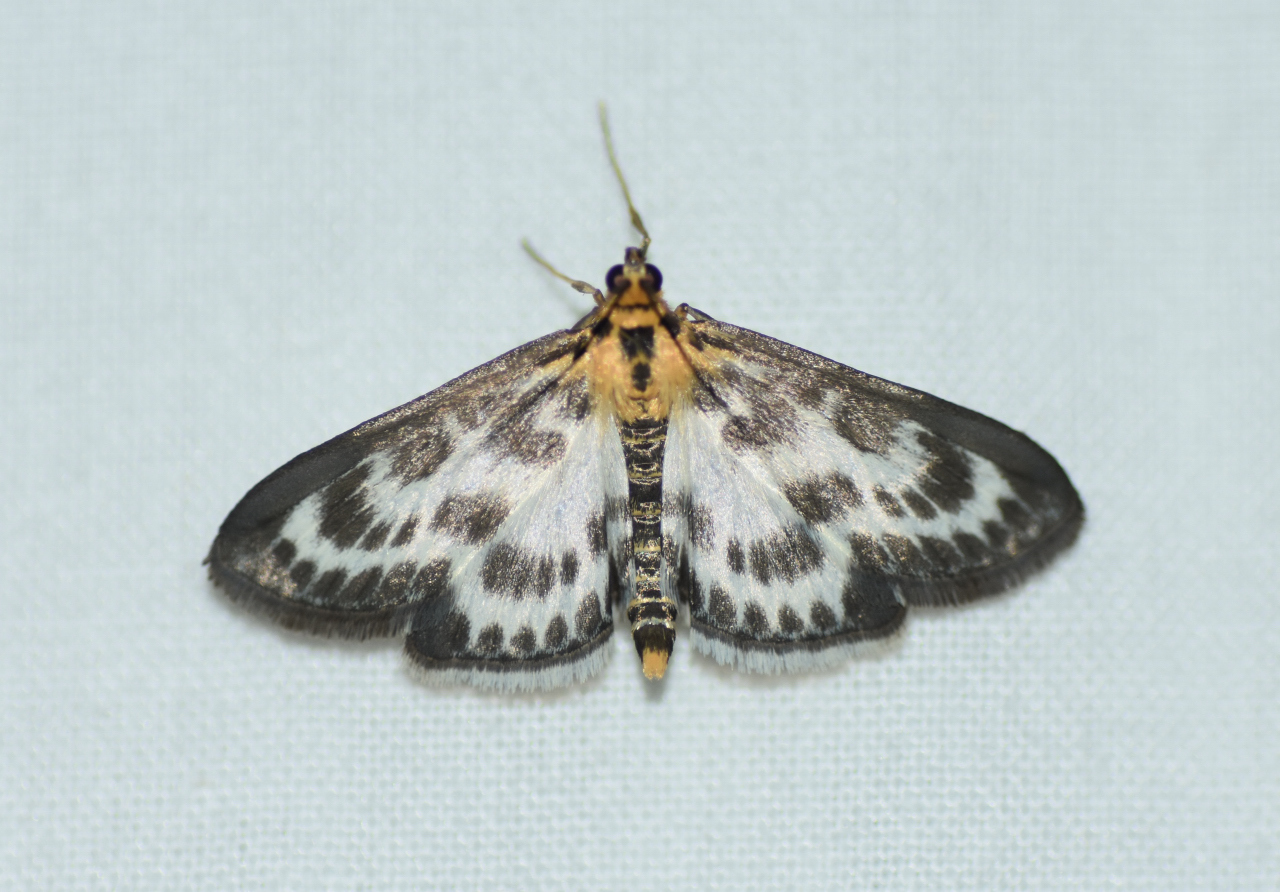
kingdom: Animalia
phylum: Arthropoda
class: Insecta
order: Lepidoptera
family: Crambidae
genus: Anania
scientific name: Anania hortulata
